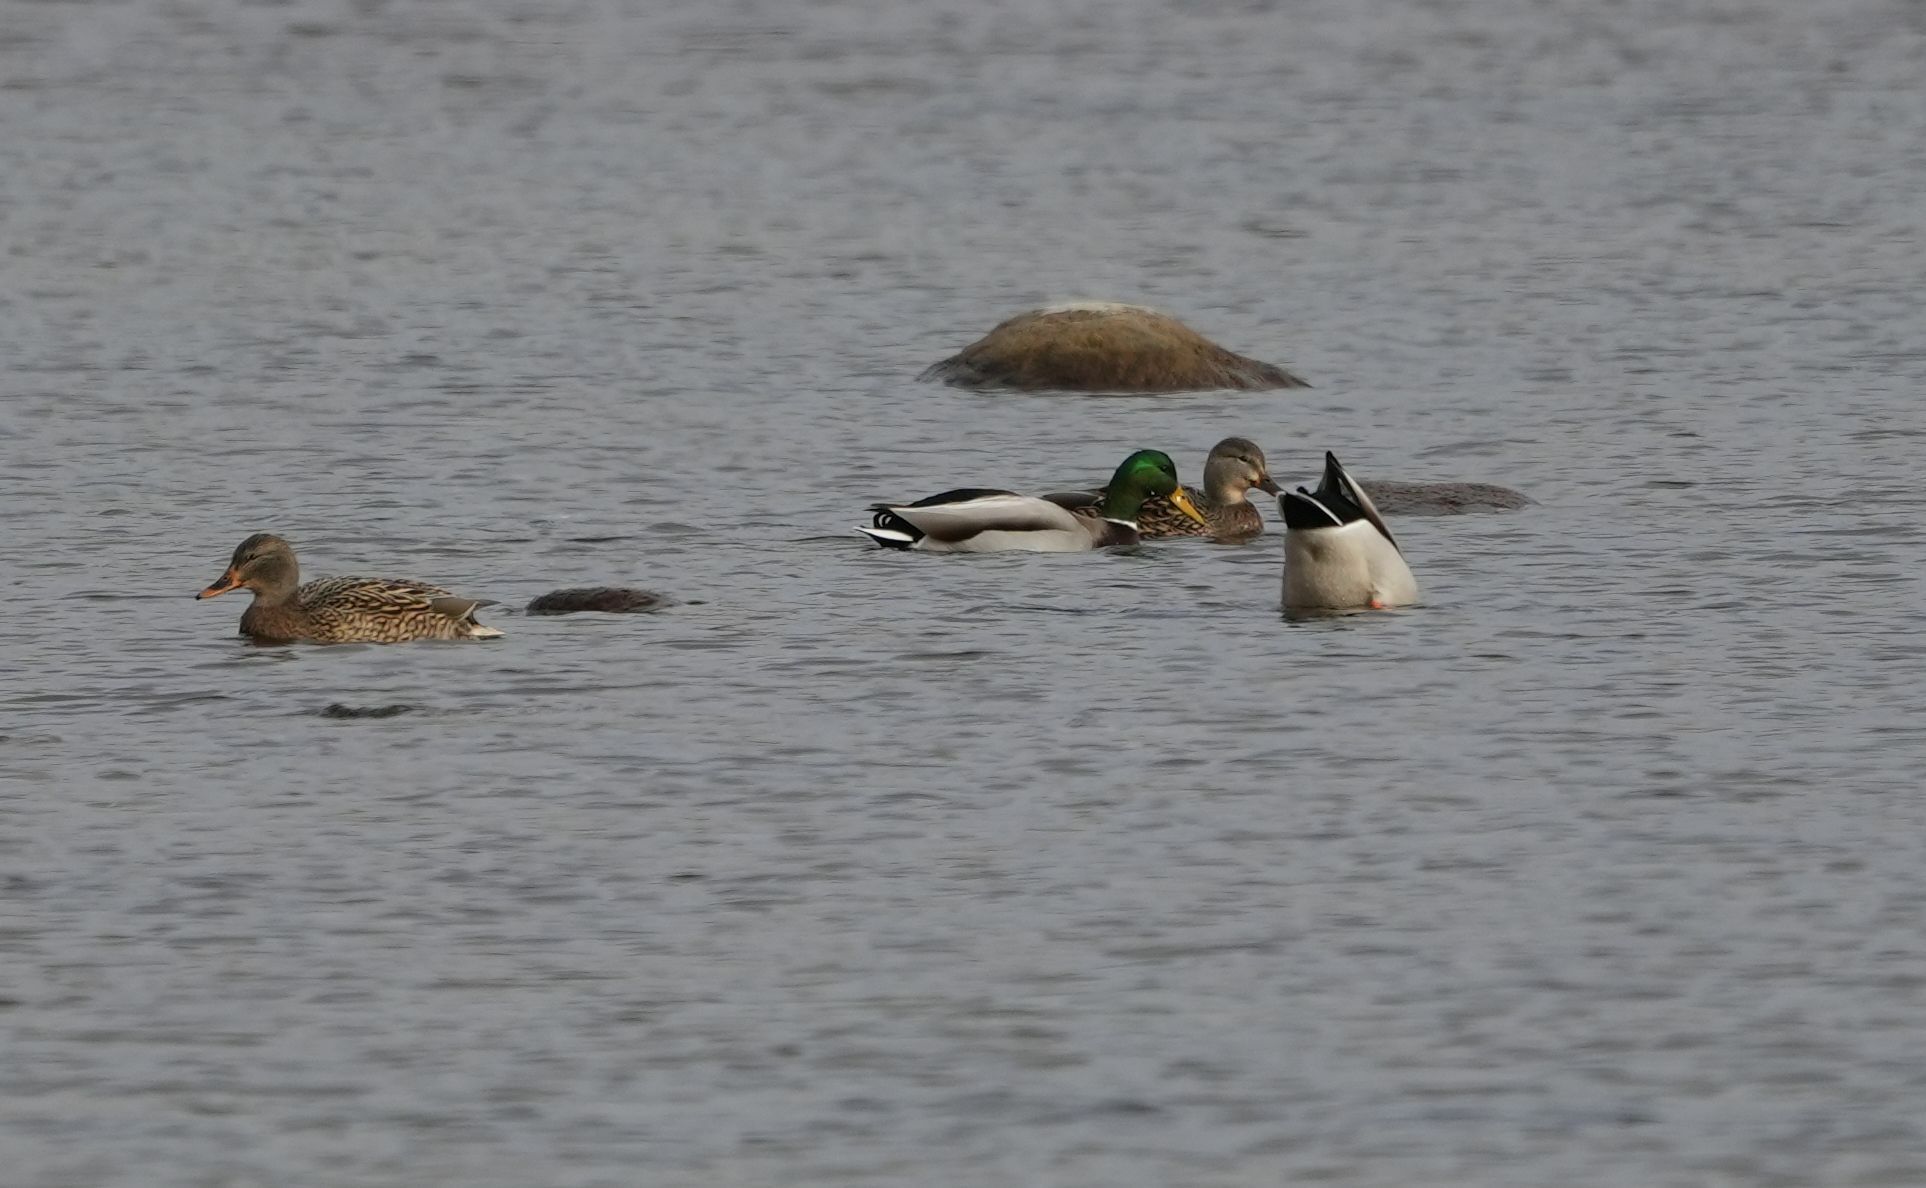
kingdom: Animalia
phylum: Chordata
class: Aves
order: Anseriformes
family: Anatidae
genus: Anas
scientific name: Anas platyrhynchos
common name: Mallard
